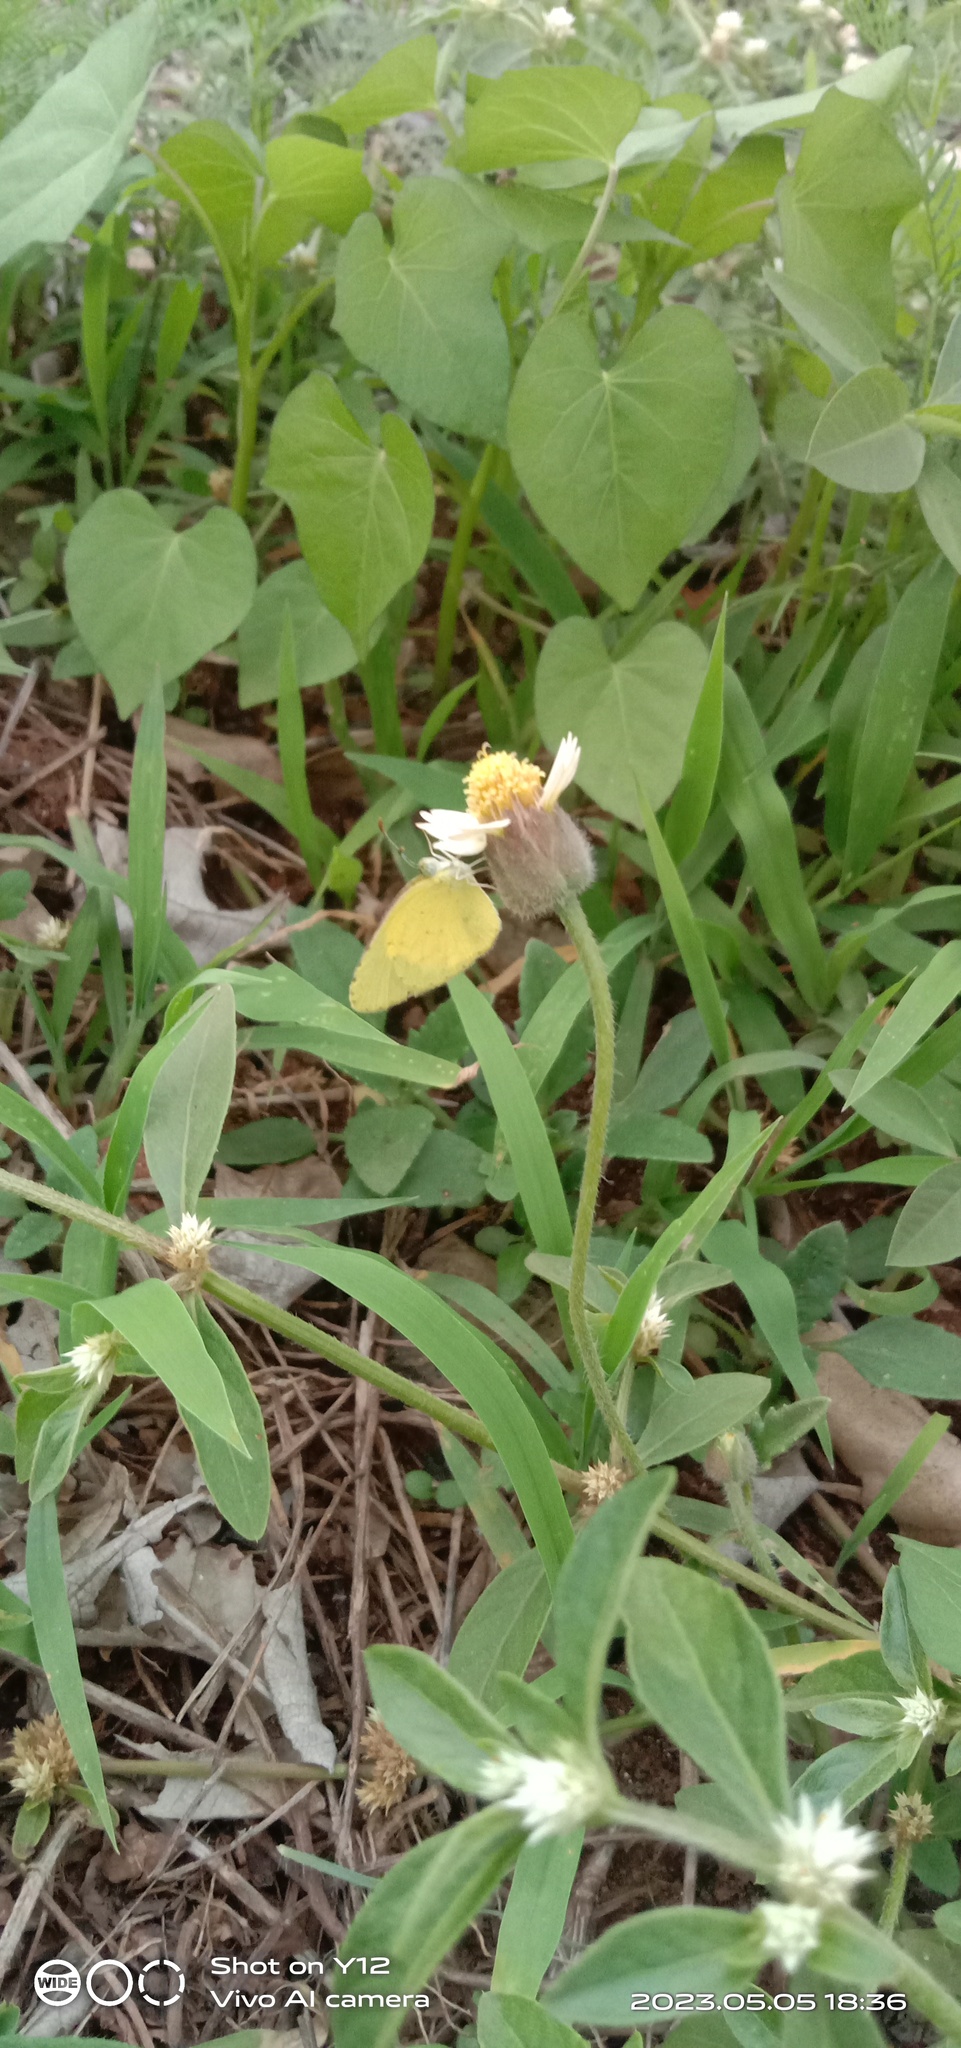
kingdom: Animalia
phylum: Arthropoda
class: Insecta
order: Lepidoptera
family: Pieridae
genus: Eurema
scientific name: Eurema brigitta
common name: Small grass yellow
